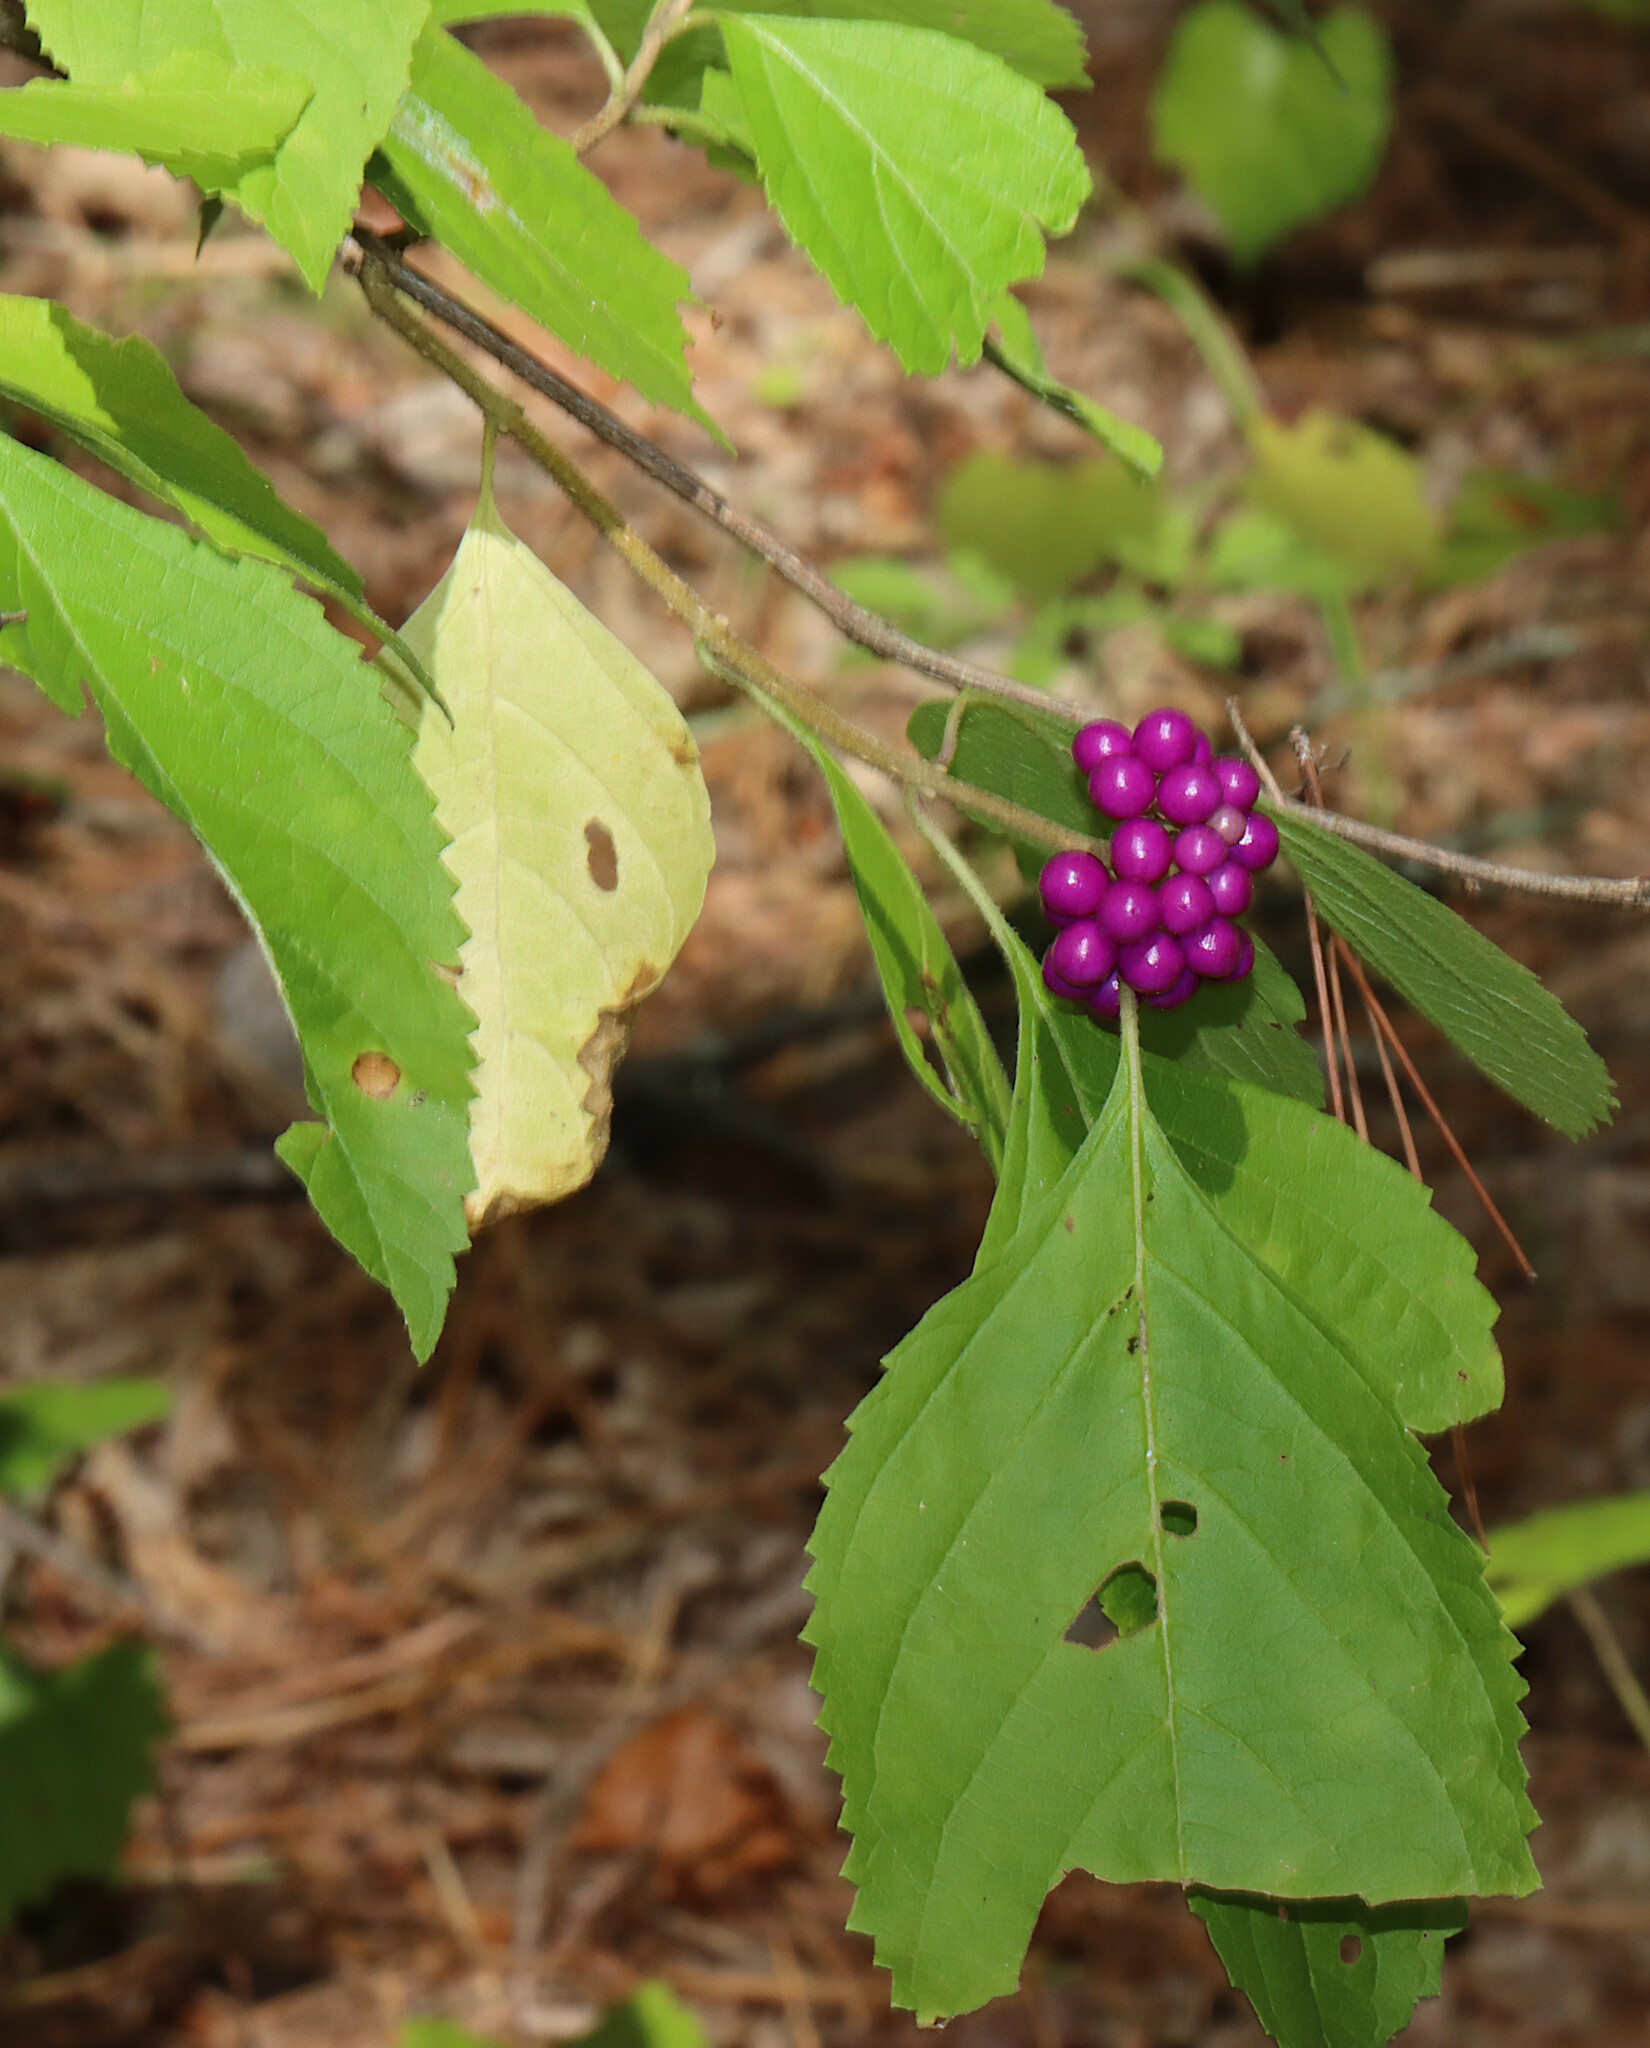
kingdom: Plantae
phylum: Tracheophyta
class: Magnoliopsida
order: Lamiales
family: Lamiaceae
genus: Callicarpa
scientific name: Callicarpa americana
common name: American beautyberry
